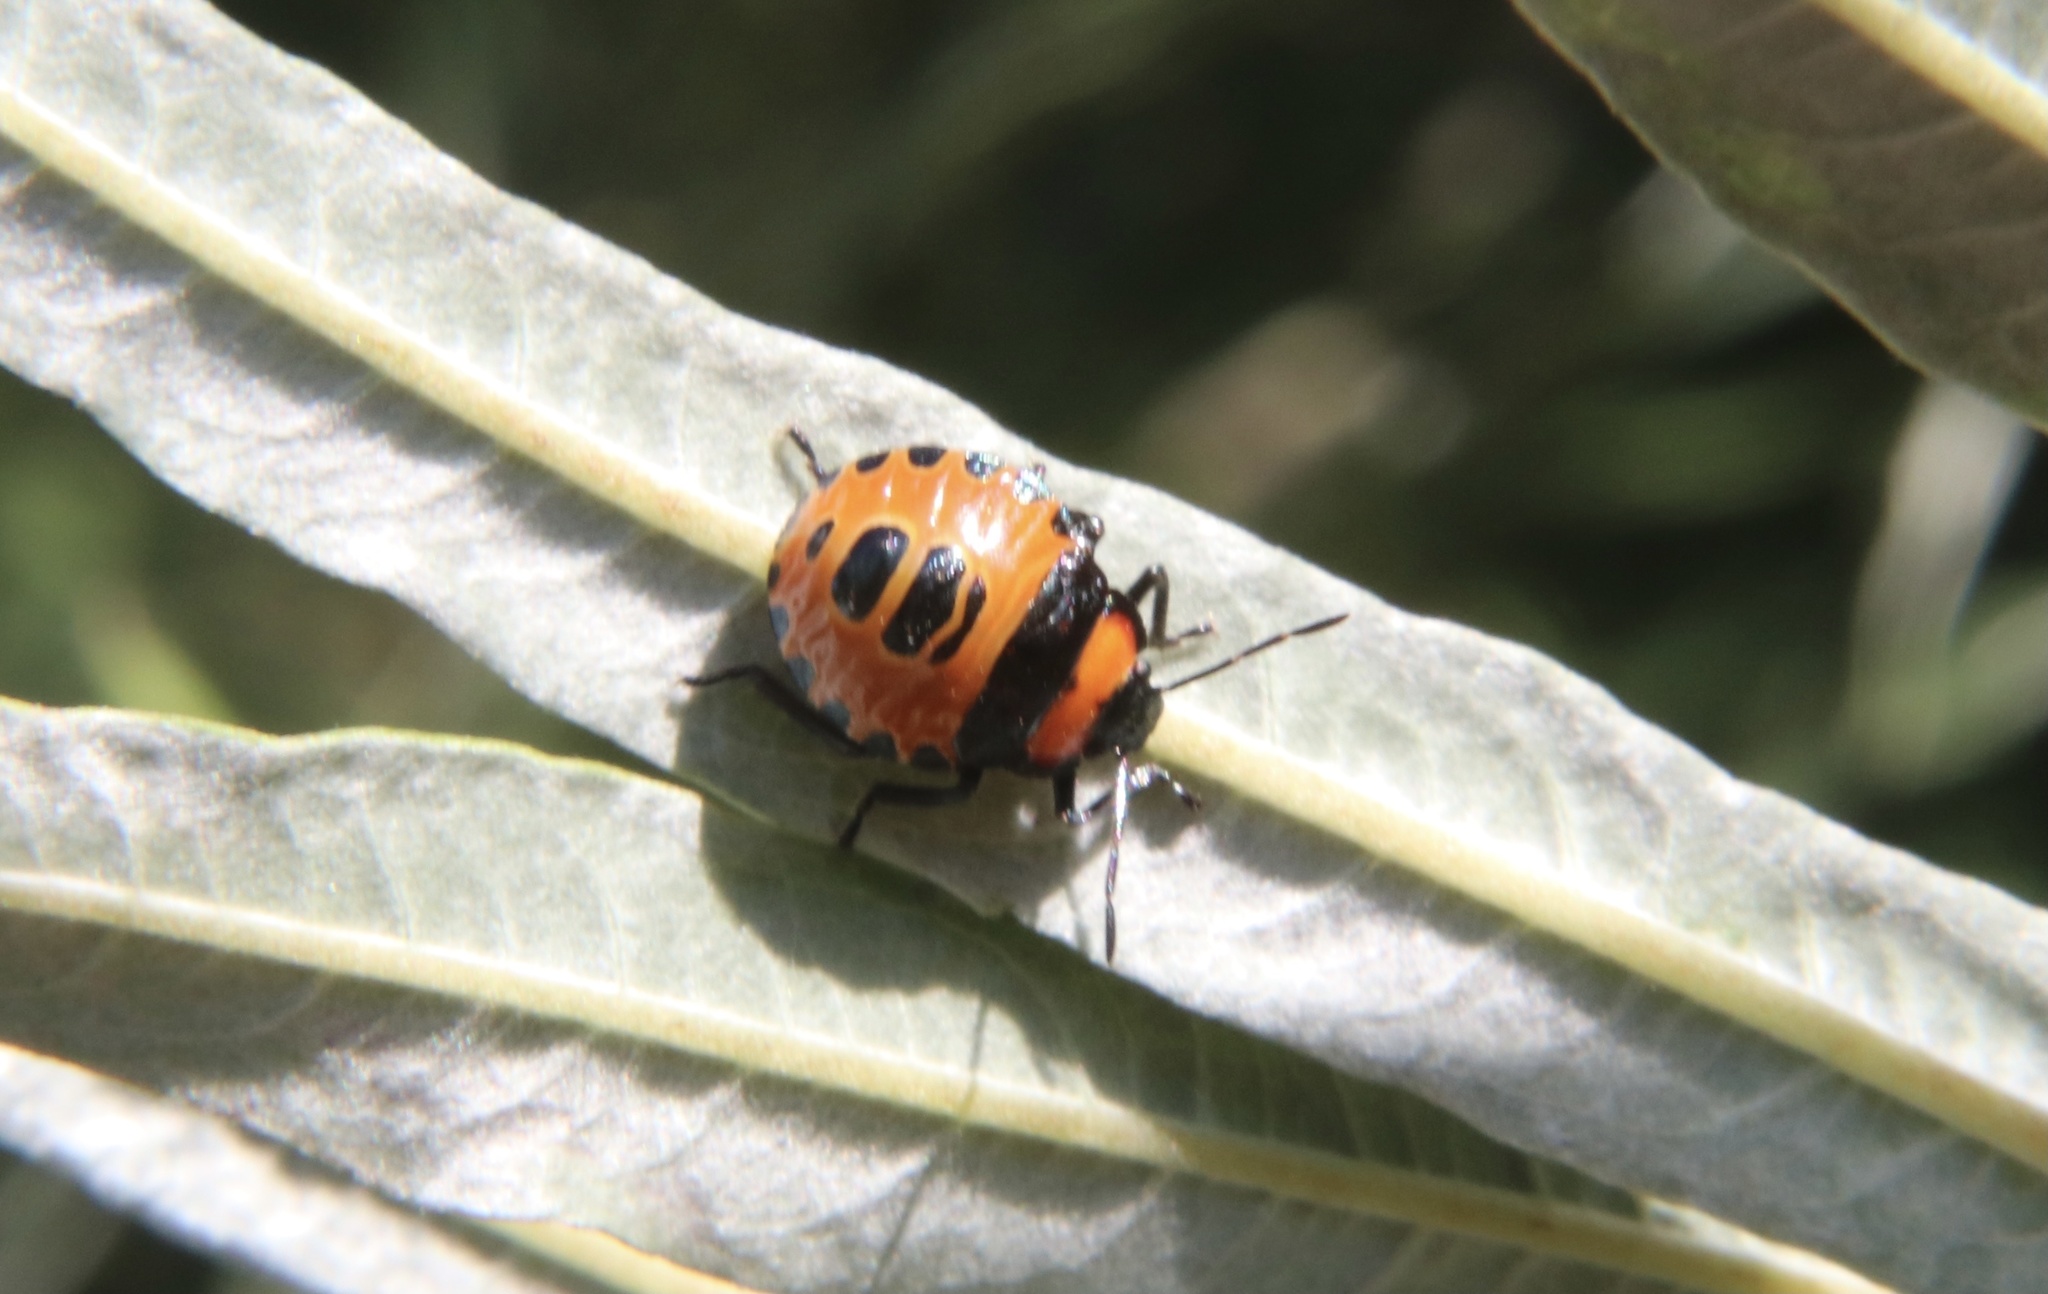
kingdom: Animalia
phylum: Arthropoda
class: Insecta
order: Hemiptera
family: Pentatomidae
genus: Brontocoris
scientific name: Brontocoris
